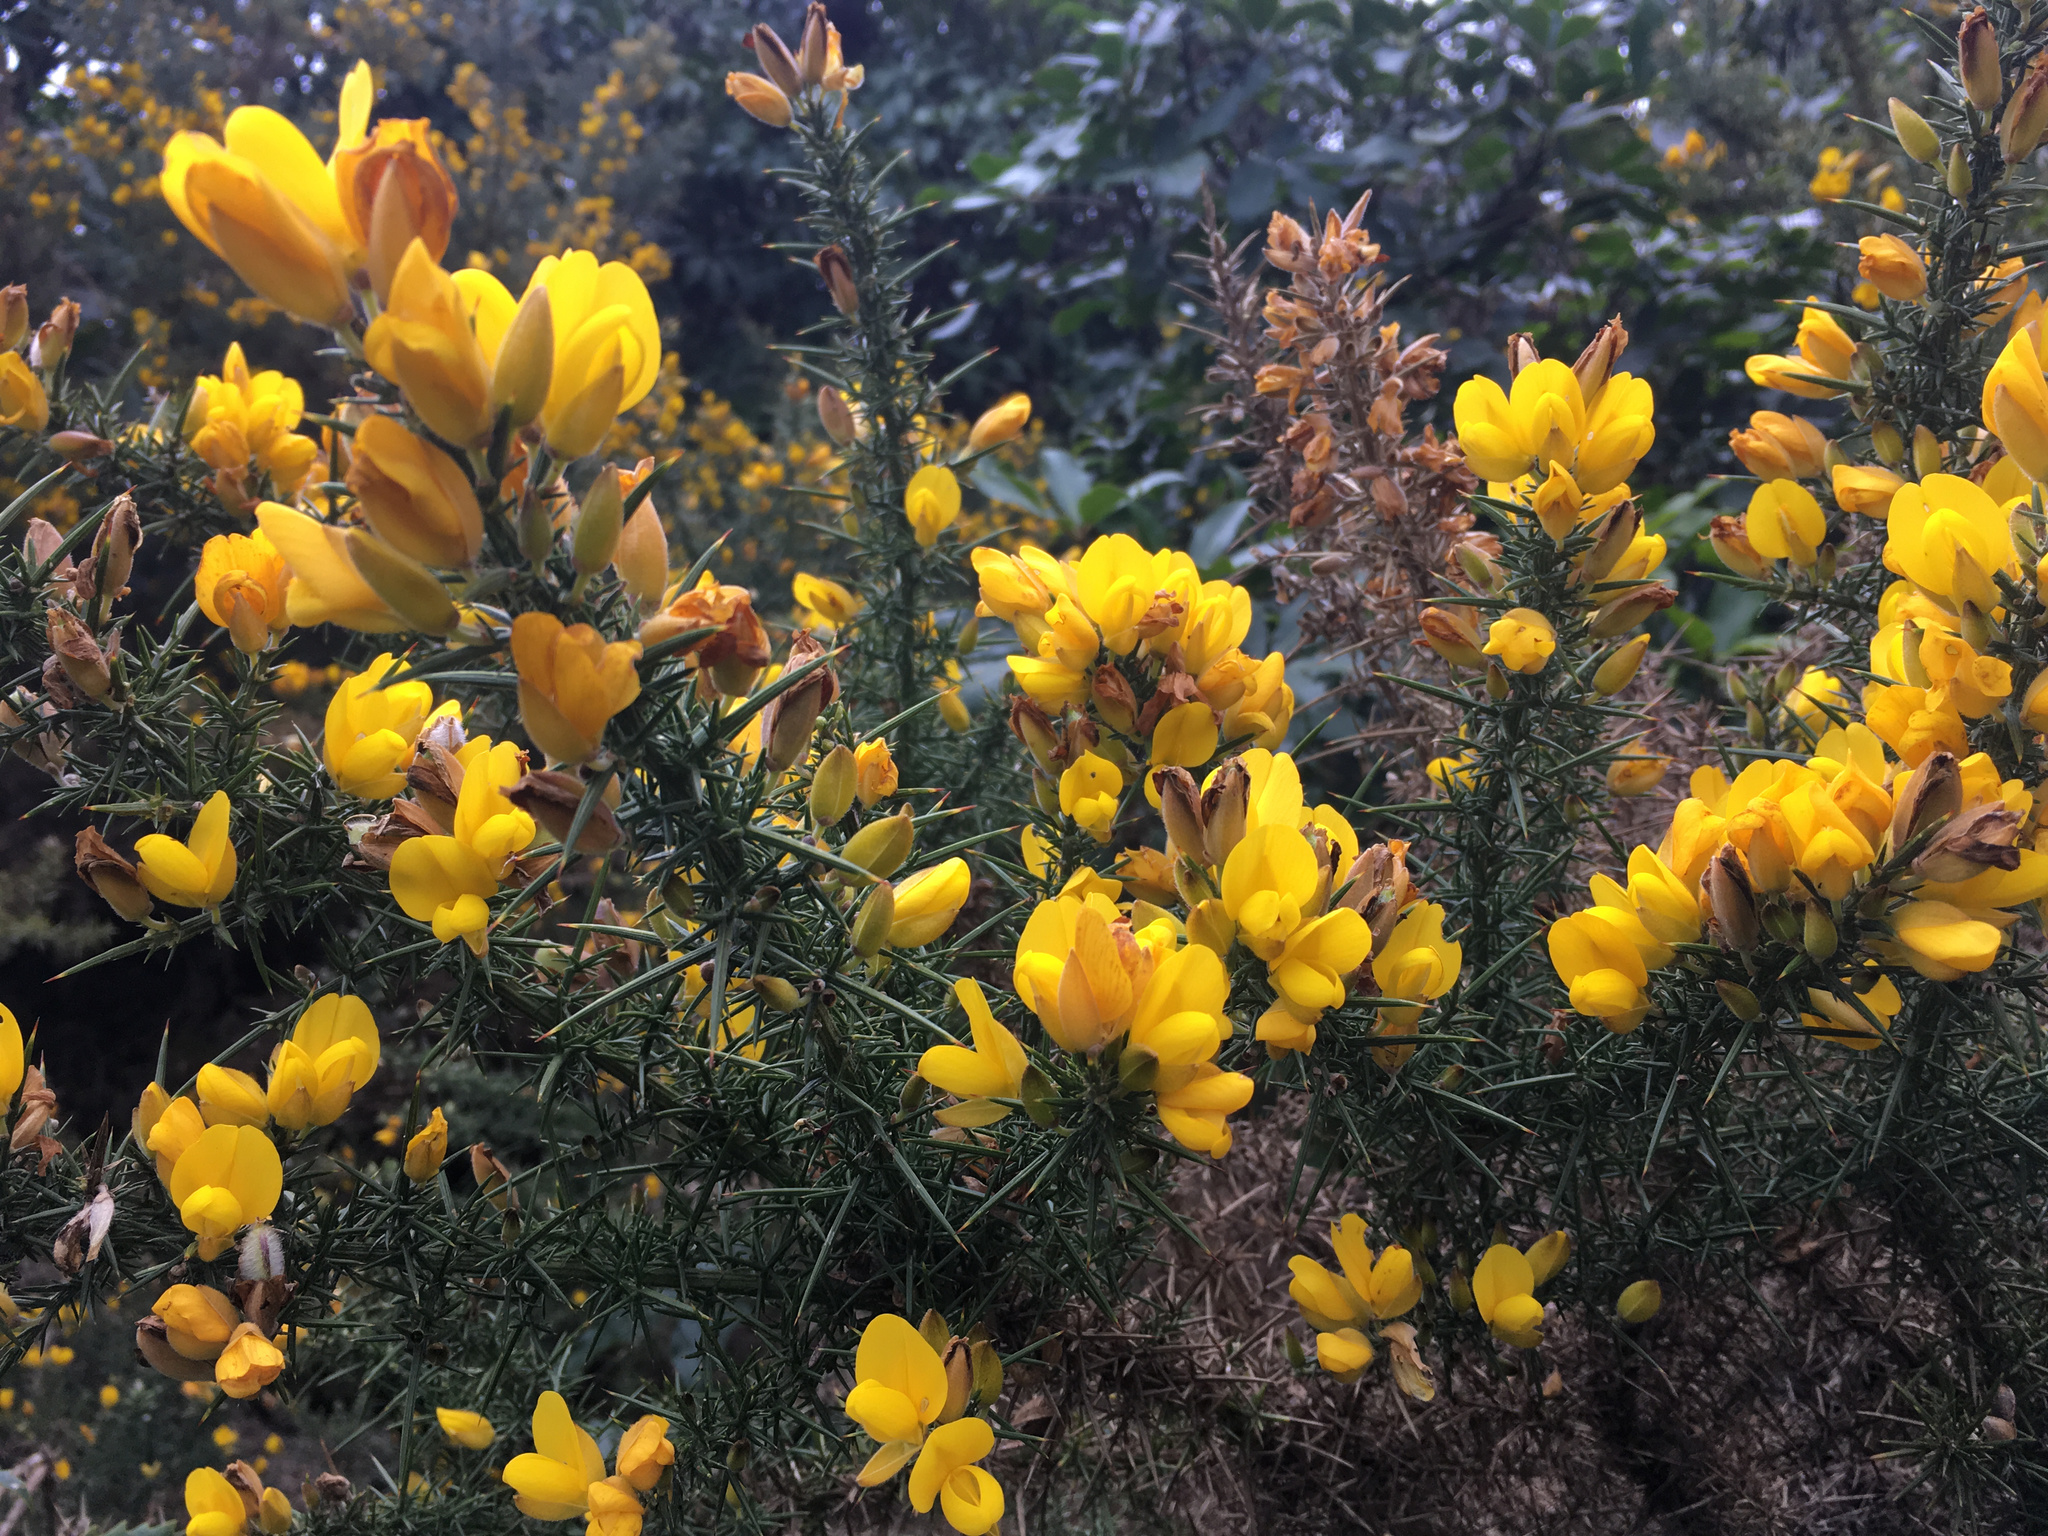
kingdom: Plantae
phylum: Tracheophyta
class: Magnoliopsida
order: Fabales
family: Fabaceae
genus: Ulex
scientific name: Ulex europaeus
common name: Common gorse
